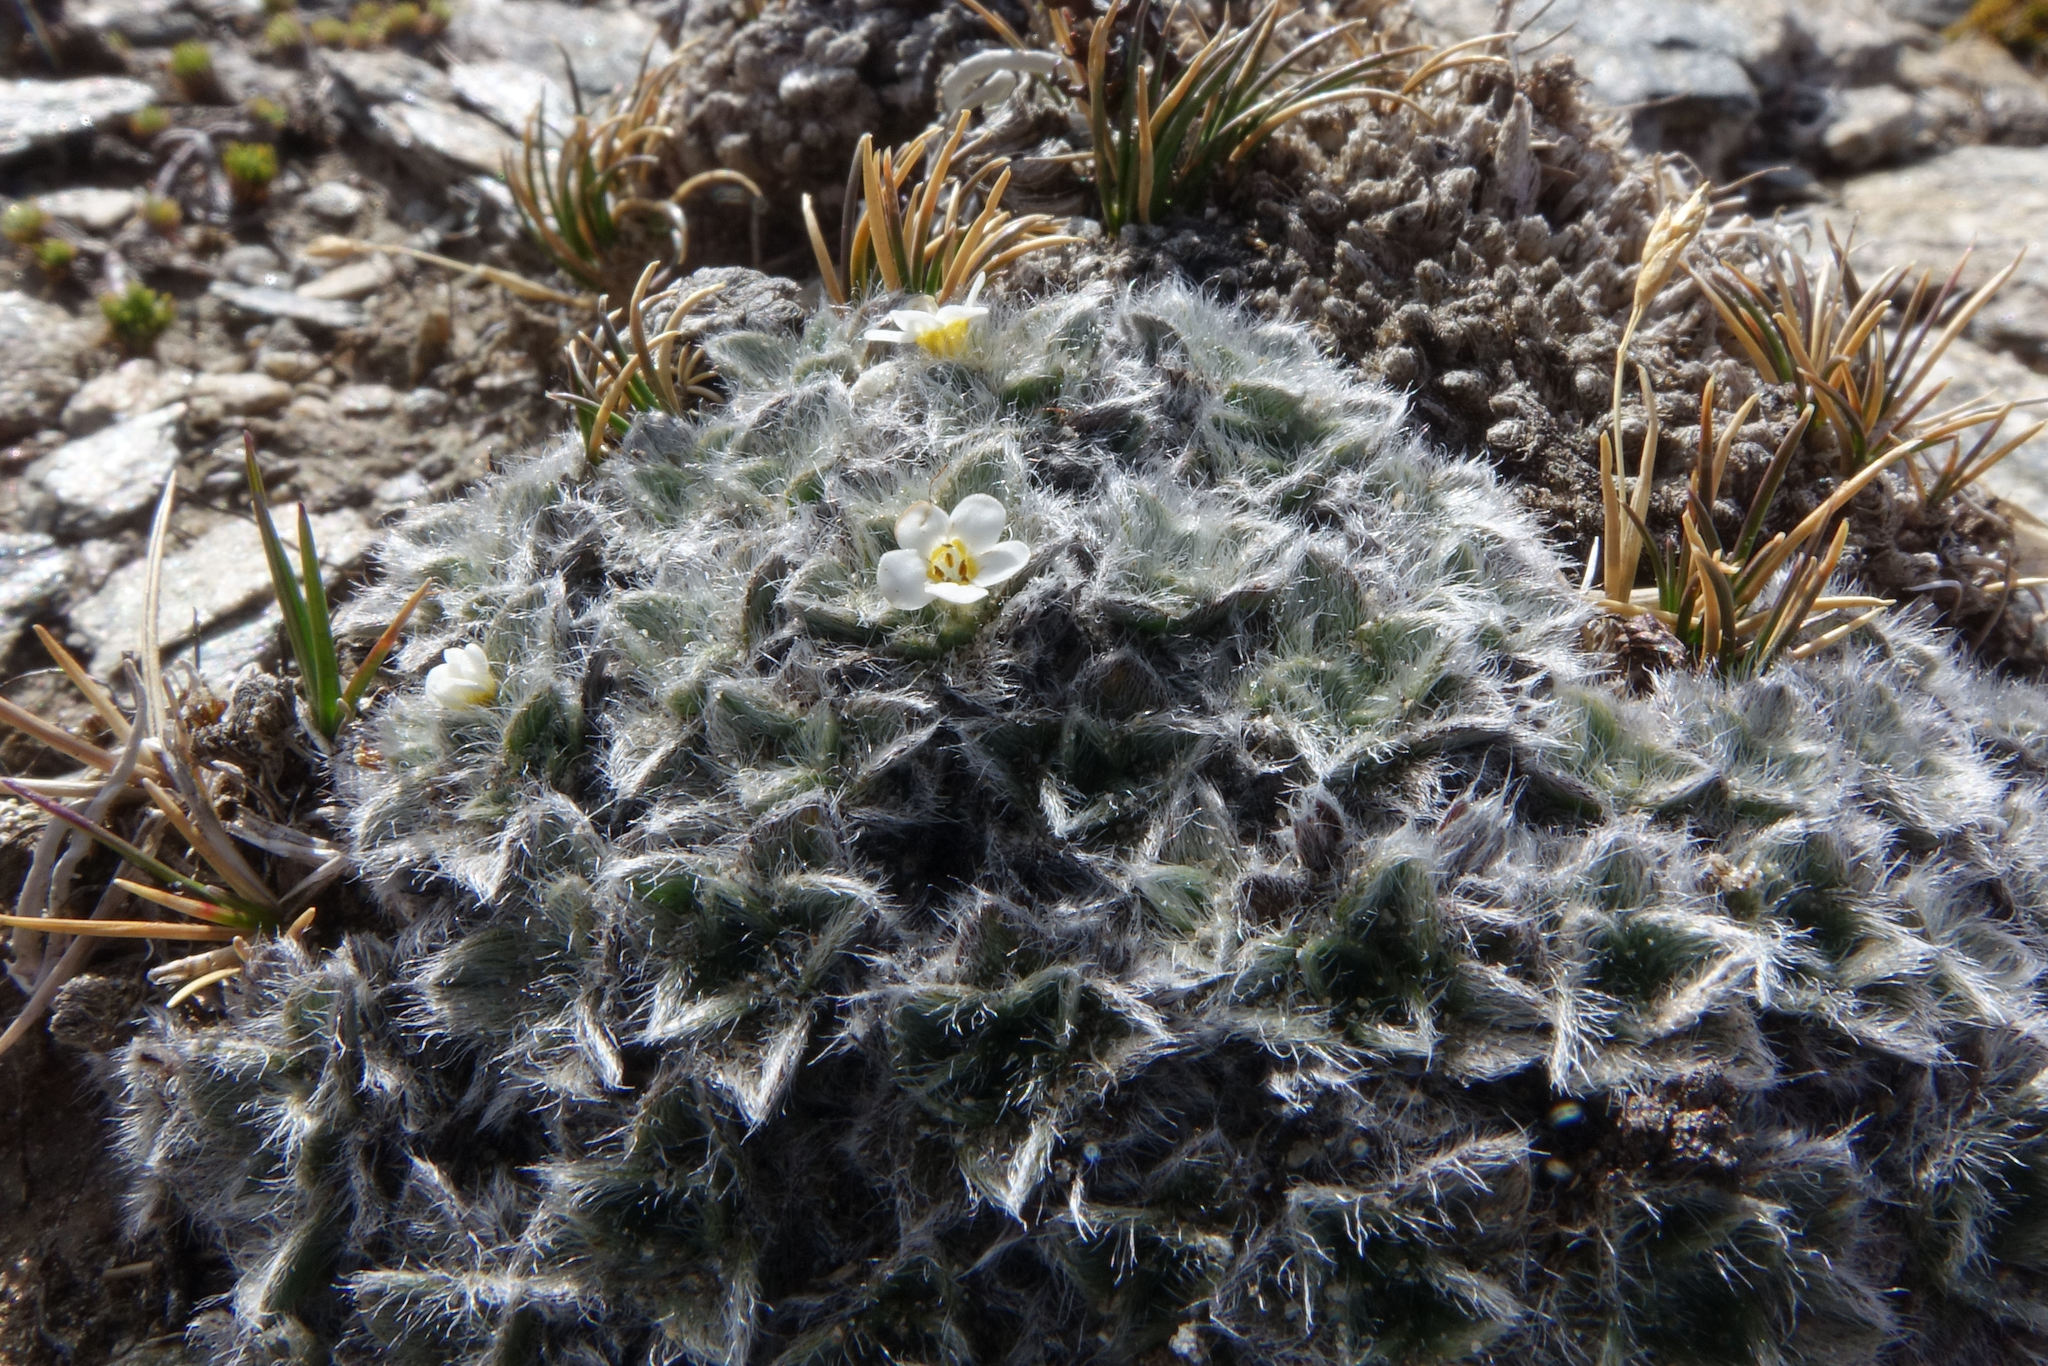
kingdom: Plantae
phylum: Tracheophyta
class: Magnoliopsida
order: Boraginales
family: Boraginaceae
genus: Myosotis
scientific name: Myosotis pulvinaris
